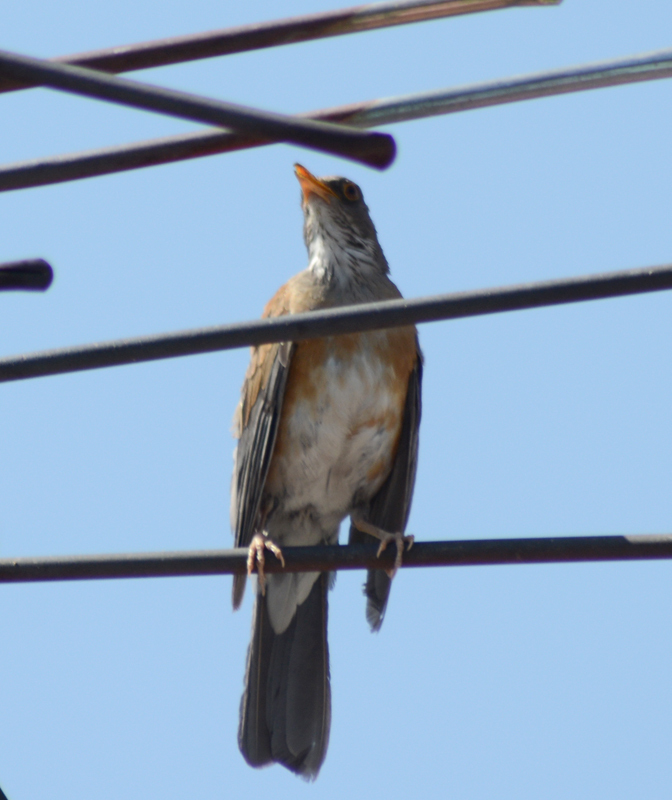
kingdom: Animalia
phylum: Chordata
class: Aves
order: Passeriformes
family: Turdidae
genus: Turdus
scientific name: Turdus rufopalliatus
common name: Rufous-backed robin
